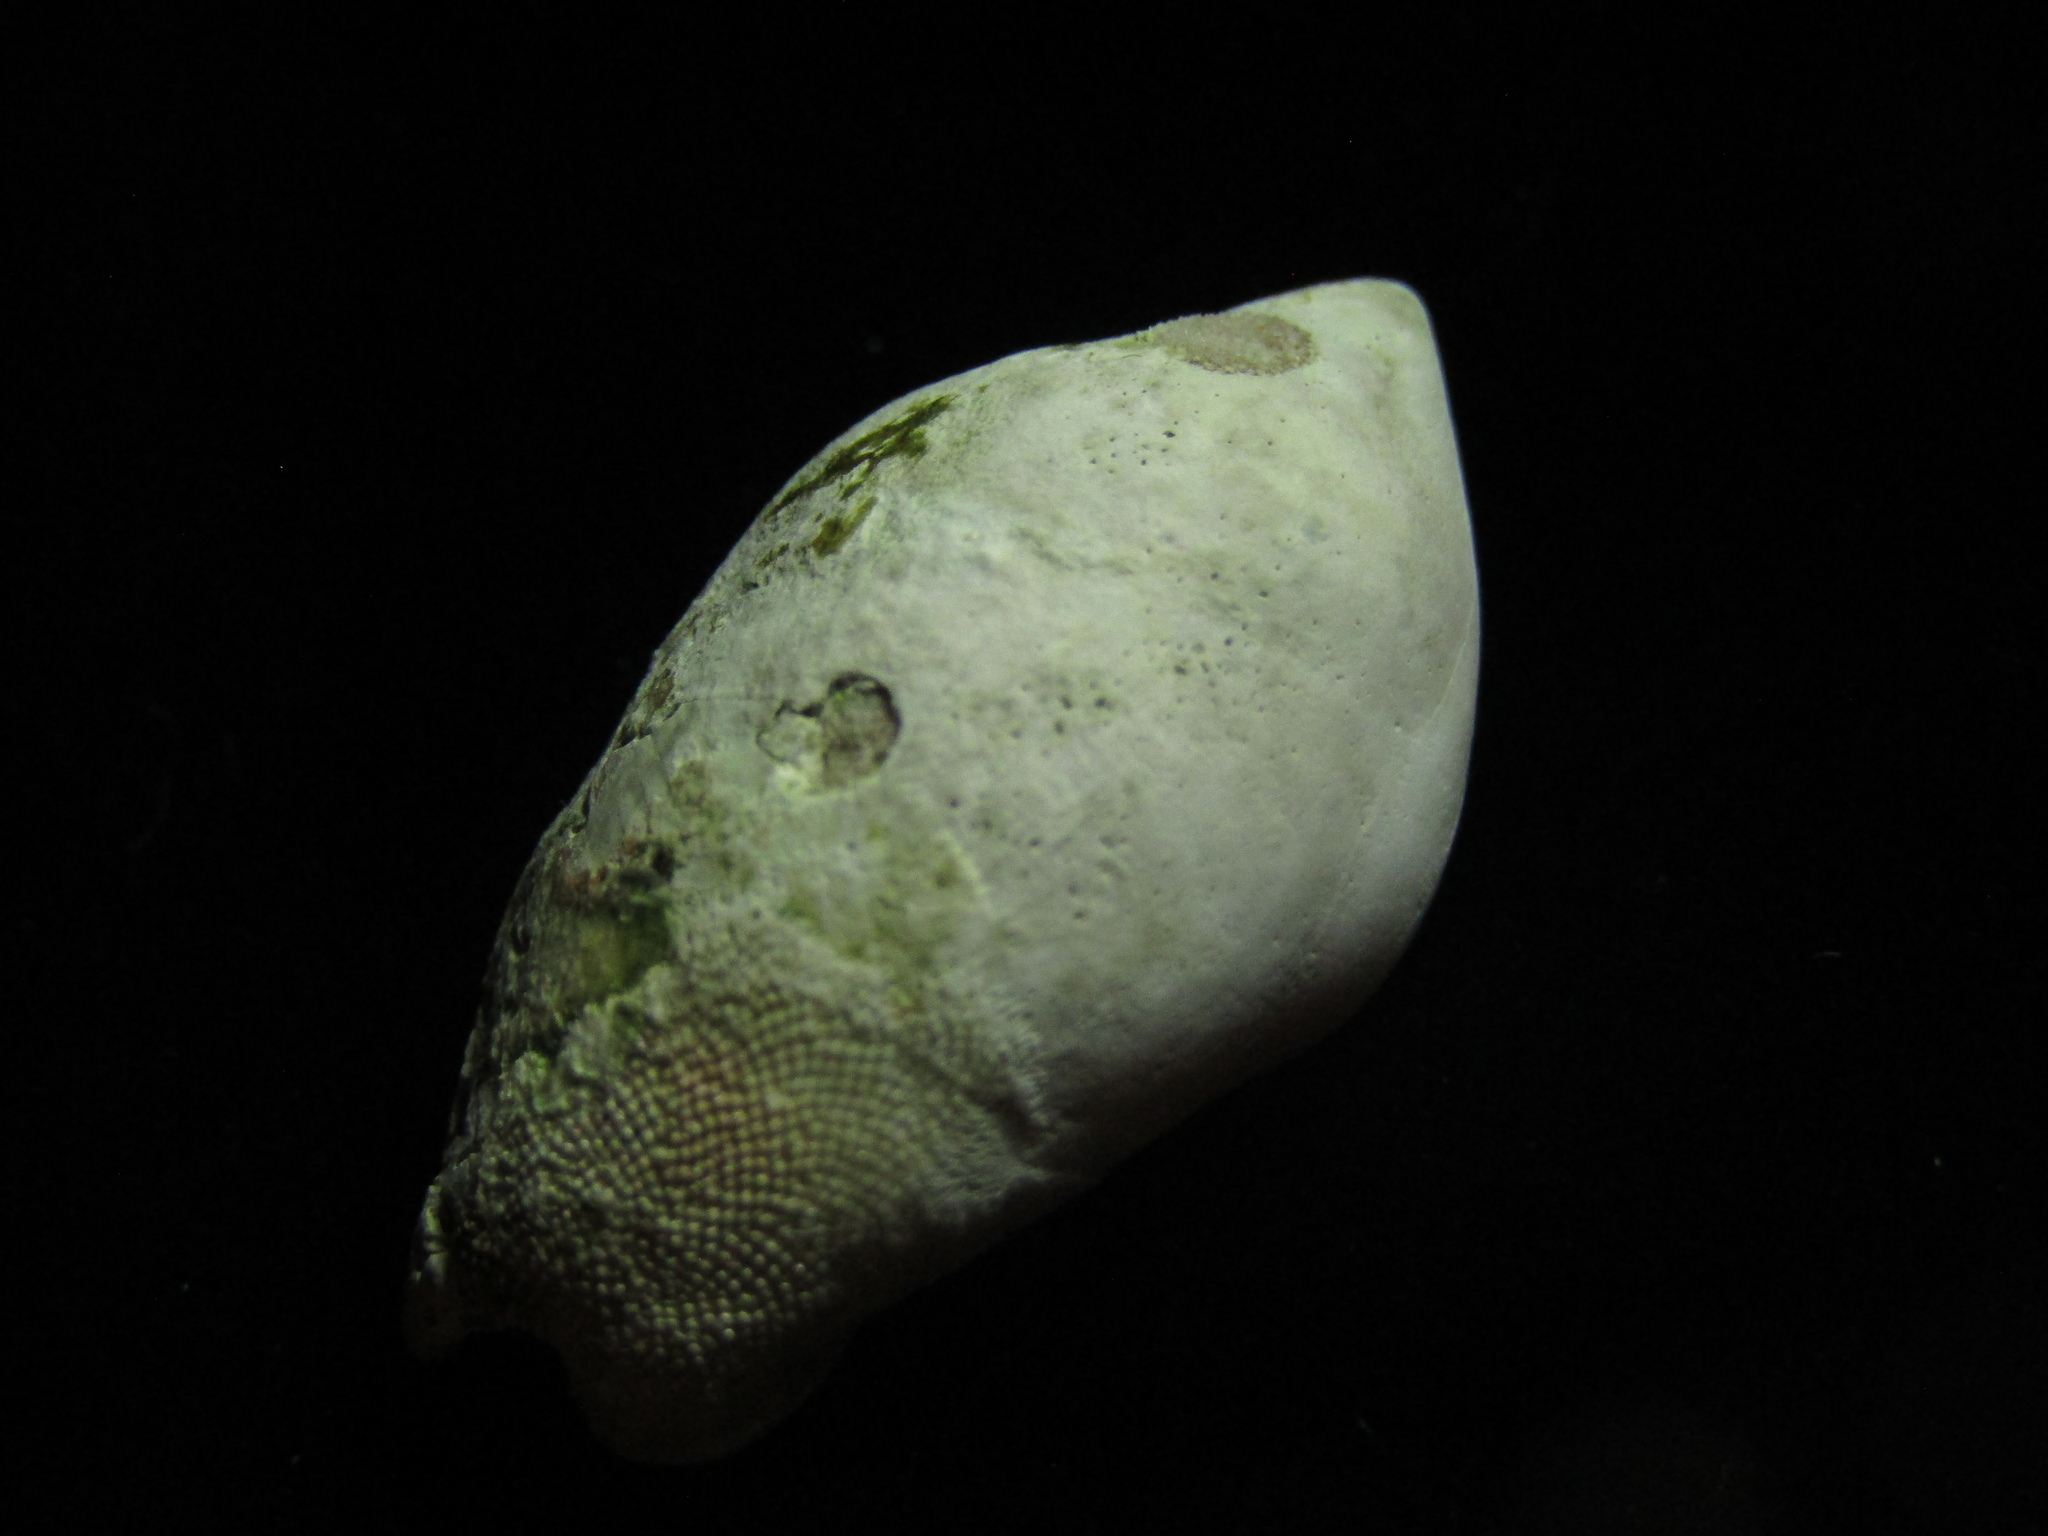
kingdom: Animalia
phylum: Mollusca
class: Gastropoda
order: Neogastropoda
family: Ancillariidae
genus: Amalda
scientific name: Amalda australis
